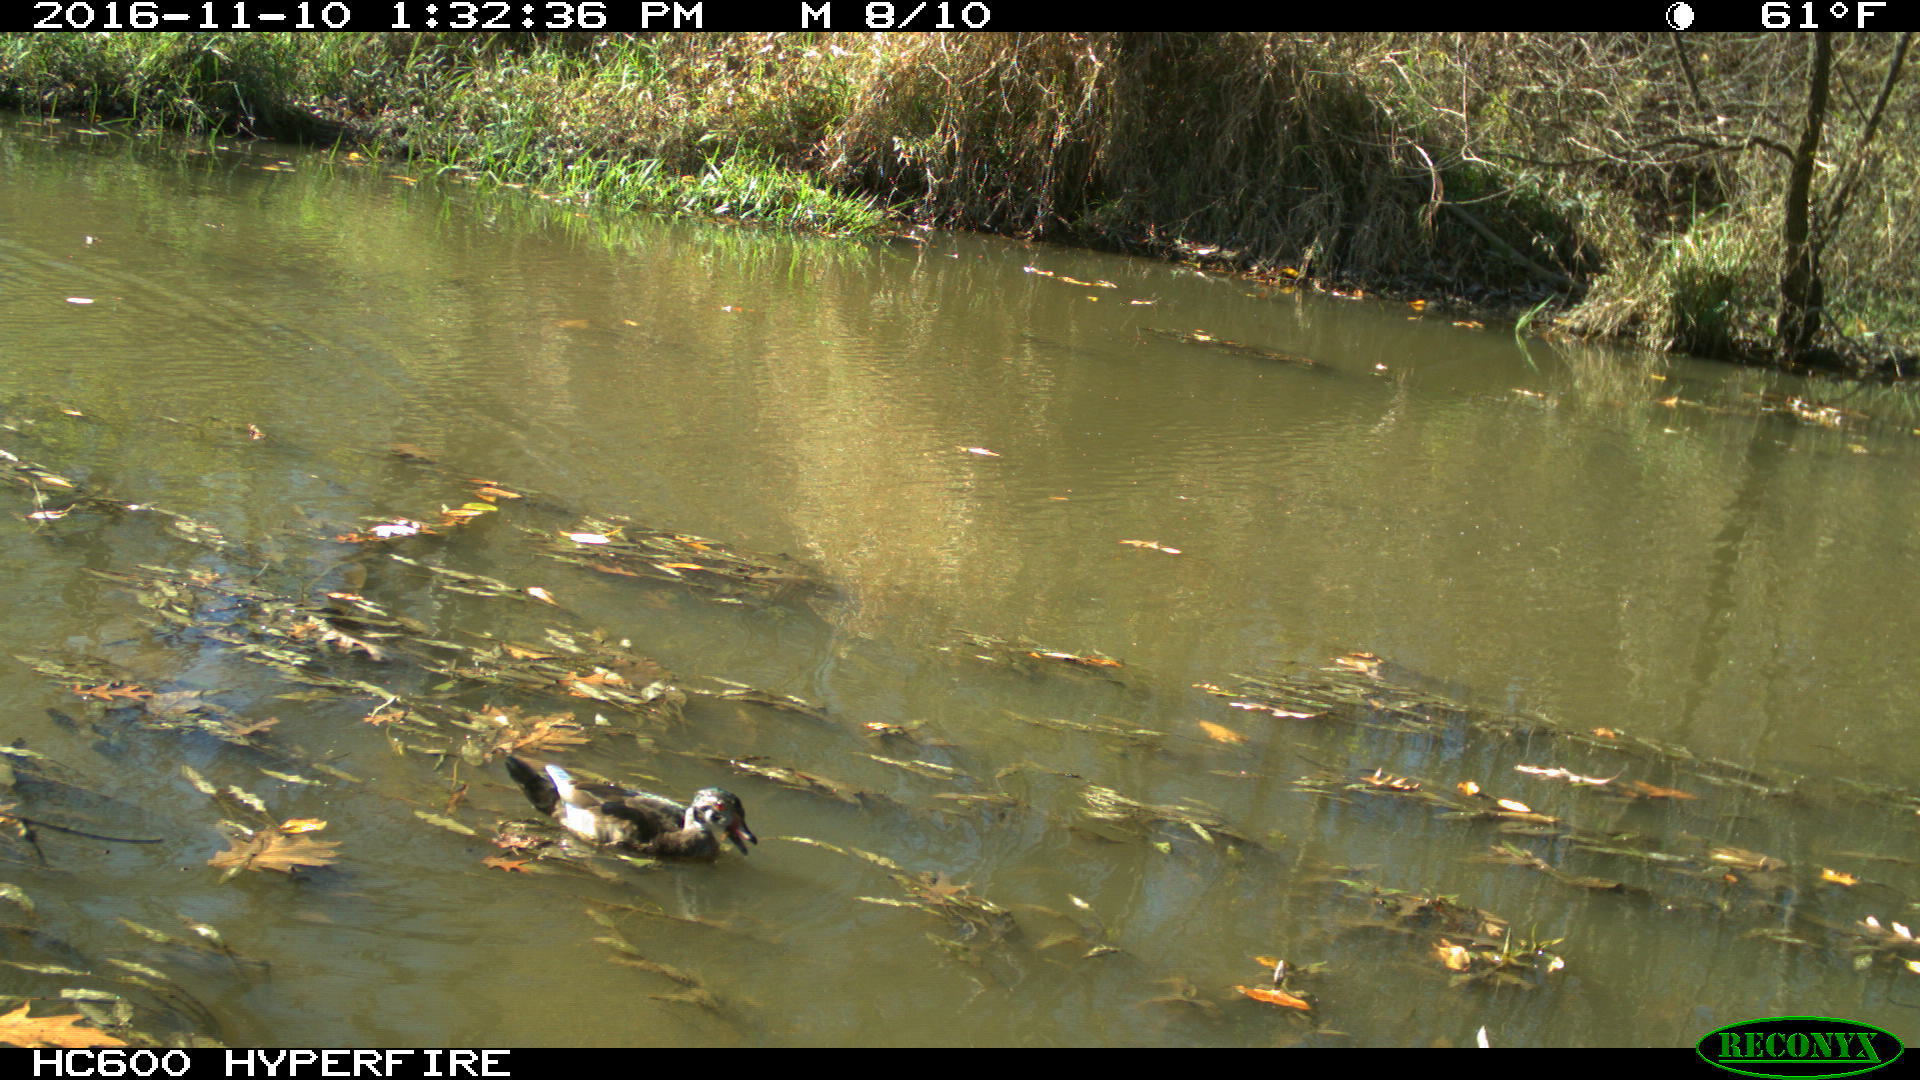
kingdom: Animalia
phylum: Chordata
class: Aves
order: Anseriformes
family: Anatidae
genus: Aix
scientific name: Aix sponsa
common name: Wood duck
